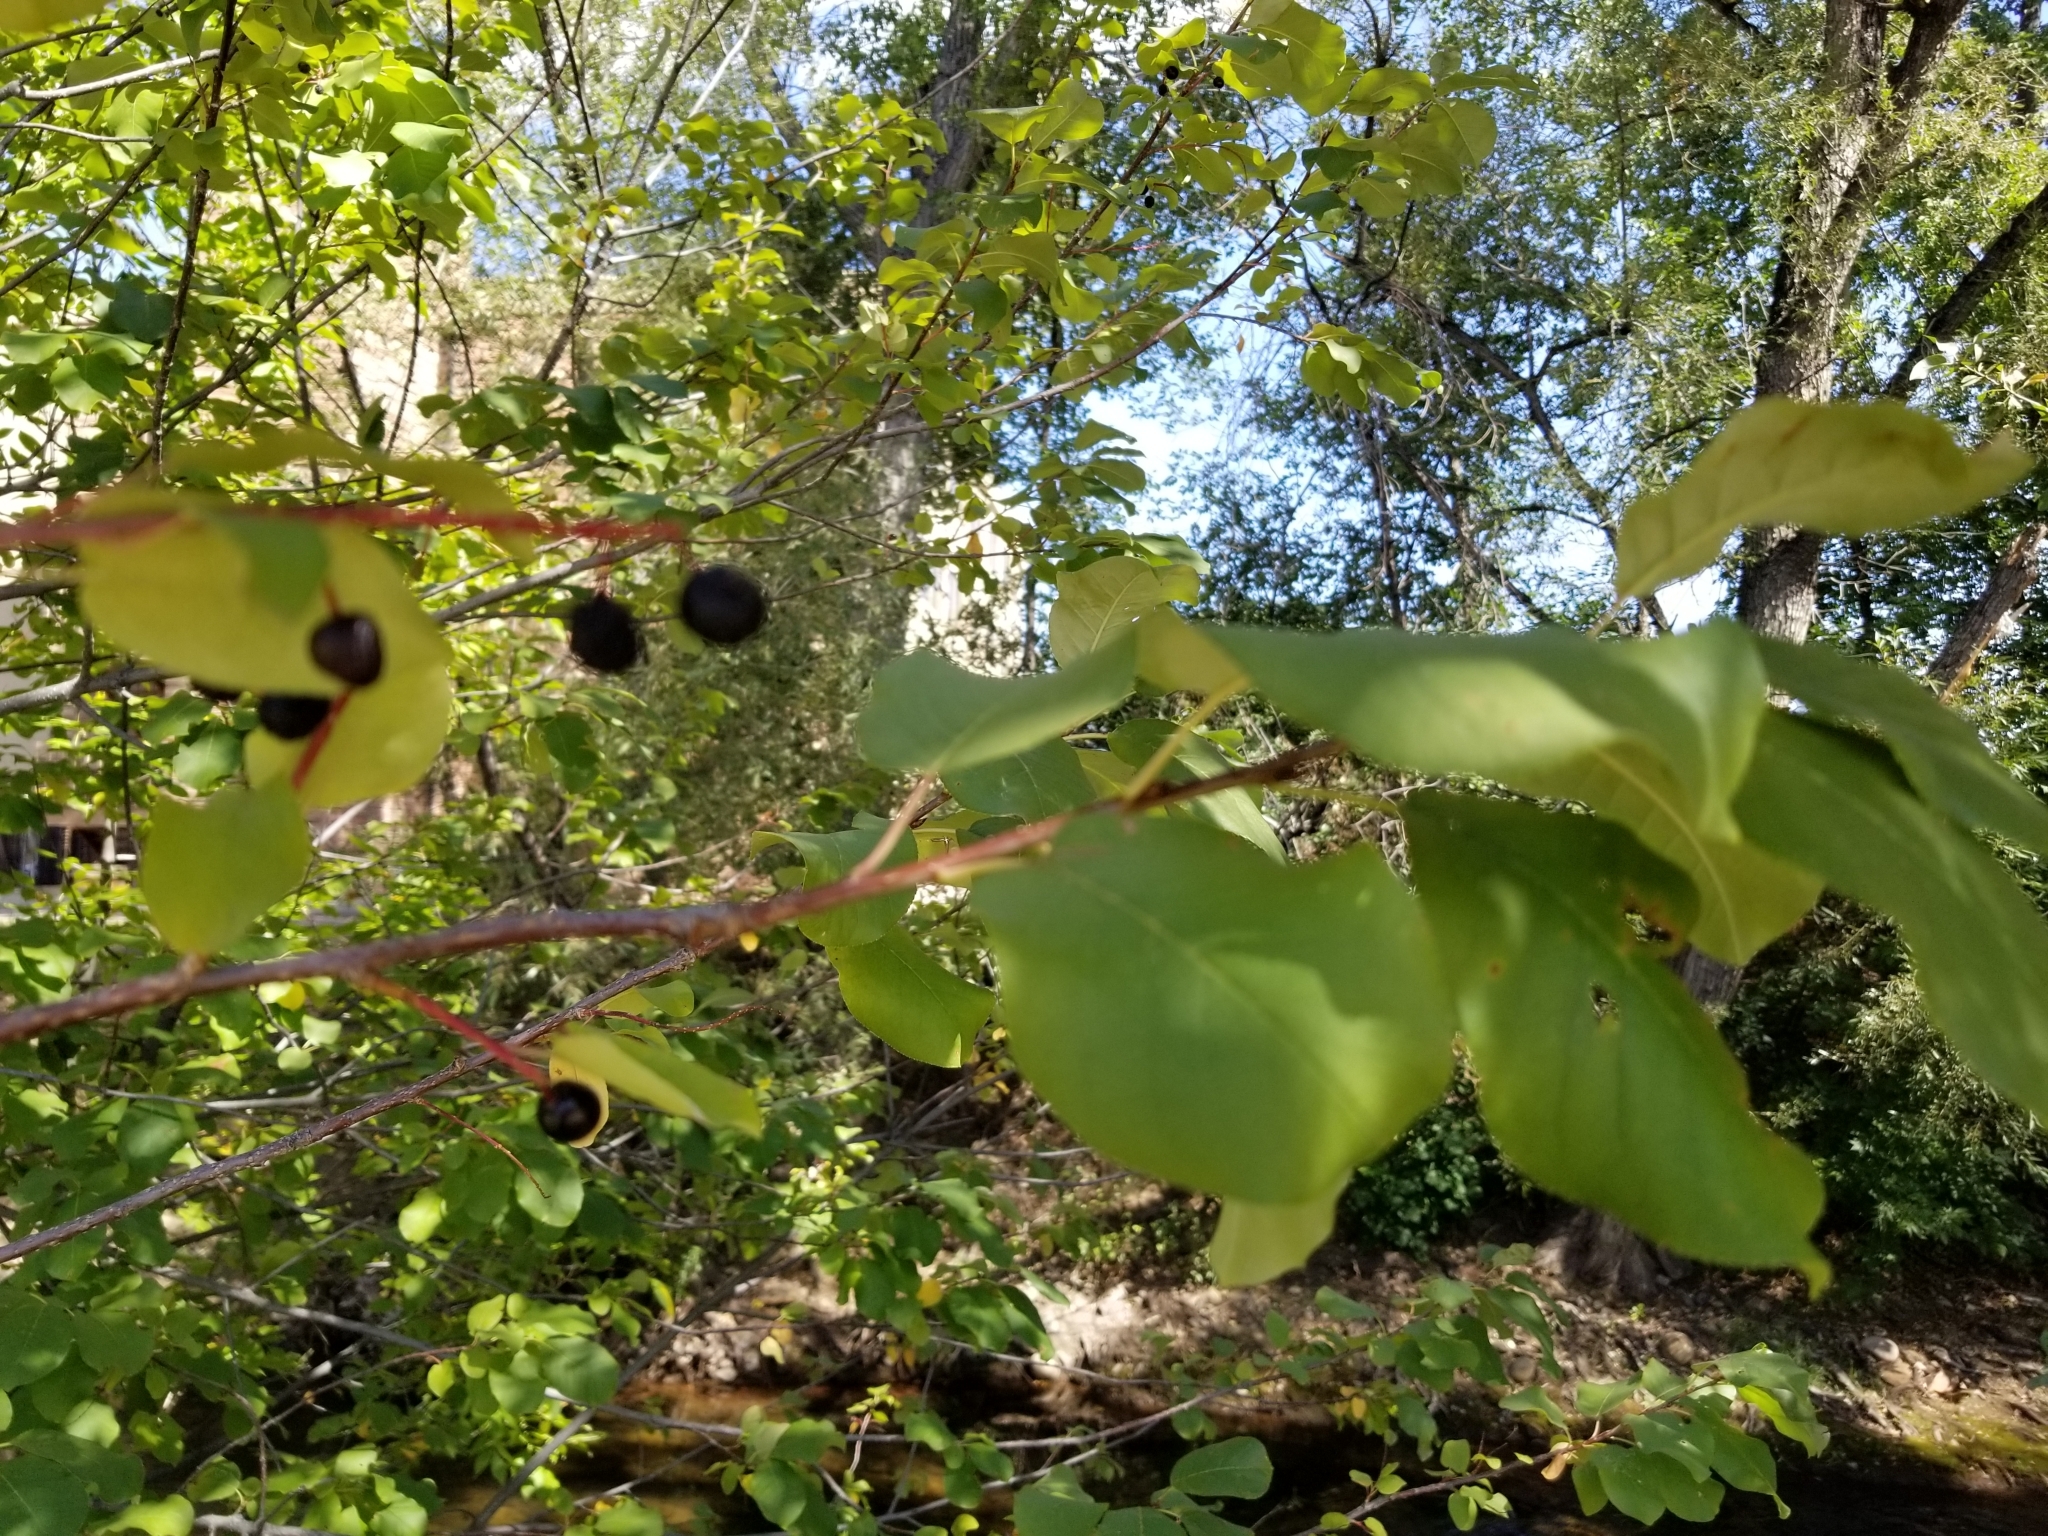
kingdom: Plantae
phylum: Tracheophyta
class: Magnoliopsida
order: Rosales
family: Rosaceae
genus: Prunus
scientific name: Prunus virginiana
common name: Chokecherry
